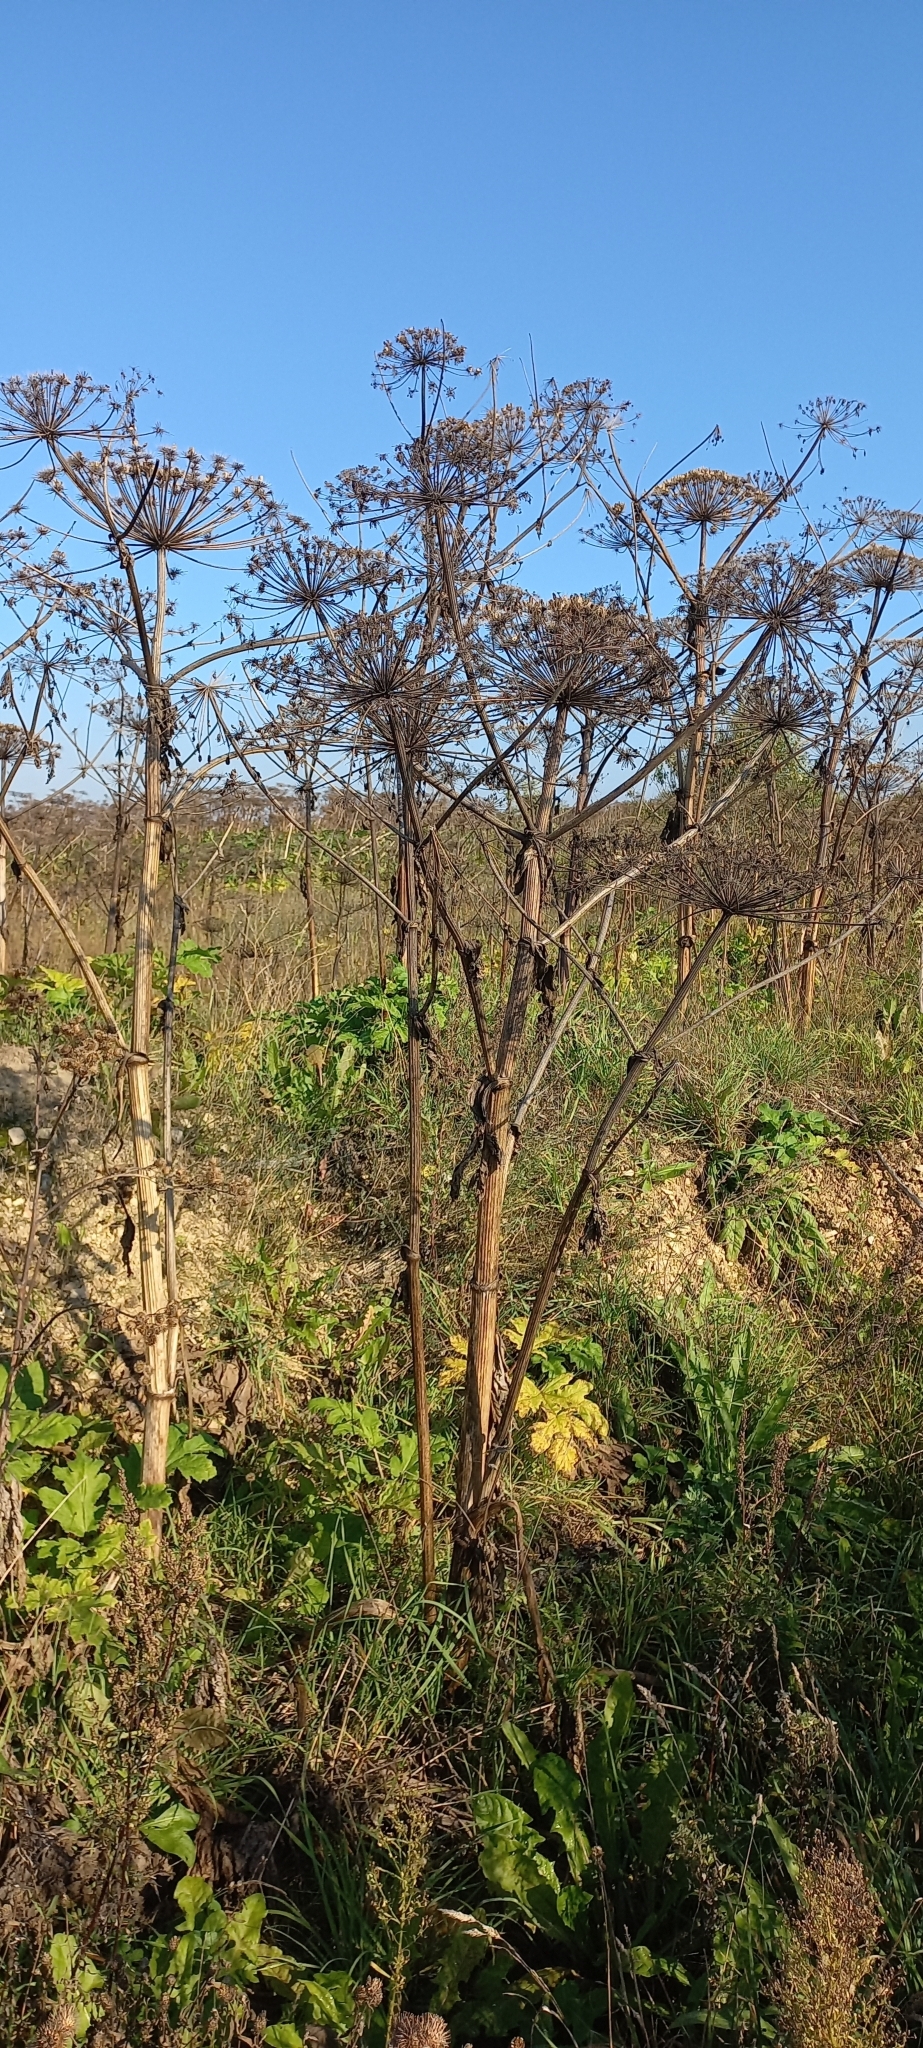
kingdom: Plantae
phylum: Tracheophyta
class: Magnoliopsida
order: Apiales
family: Apiaceae
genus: Heracleum
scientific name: Heracleum sosnowskyi
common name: Sosnowsky's hogweed
